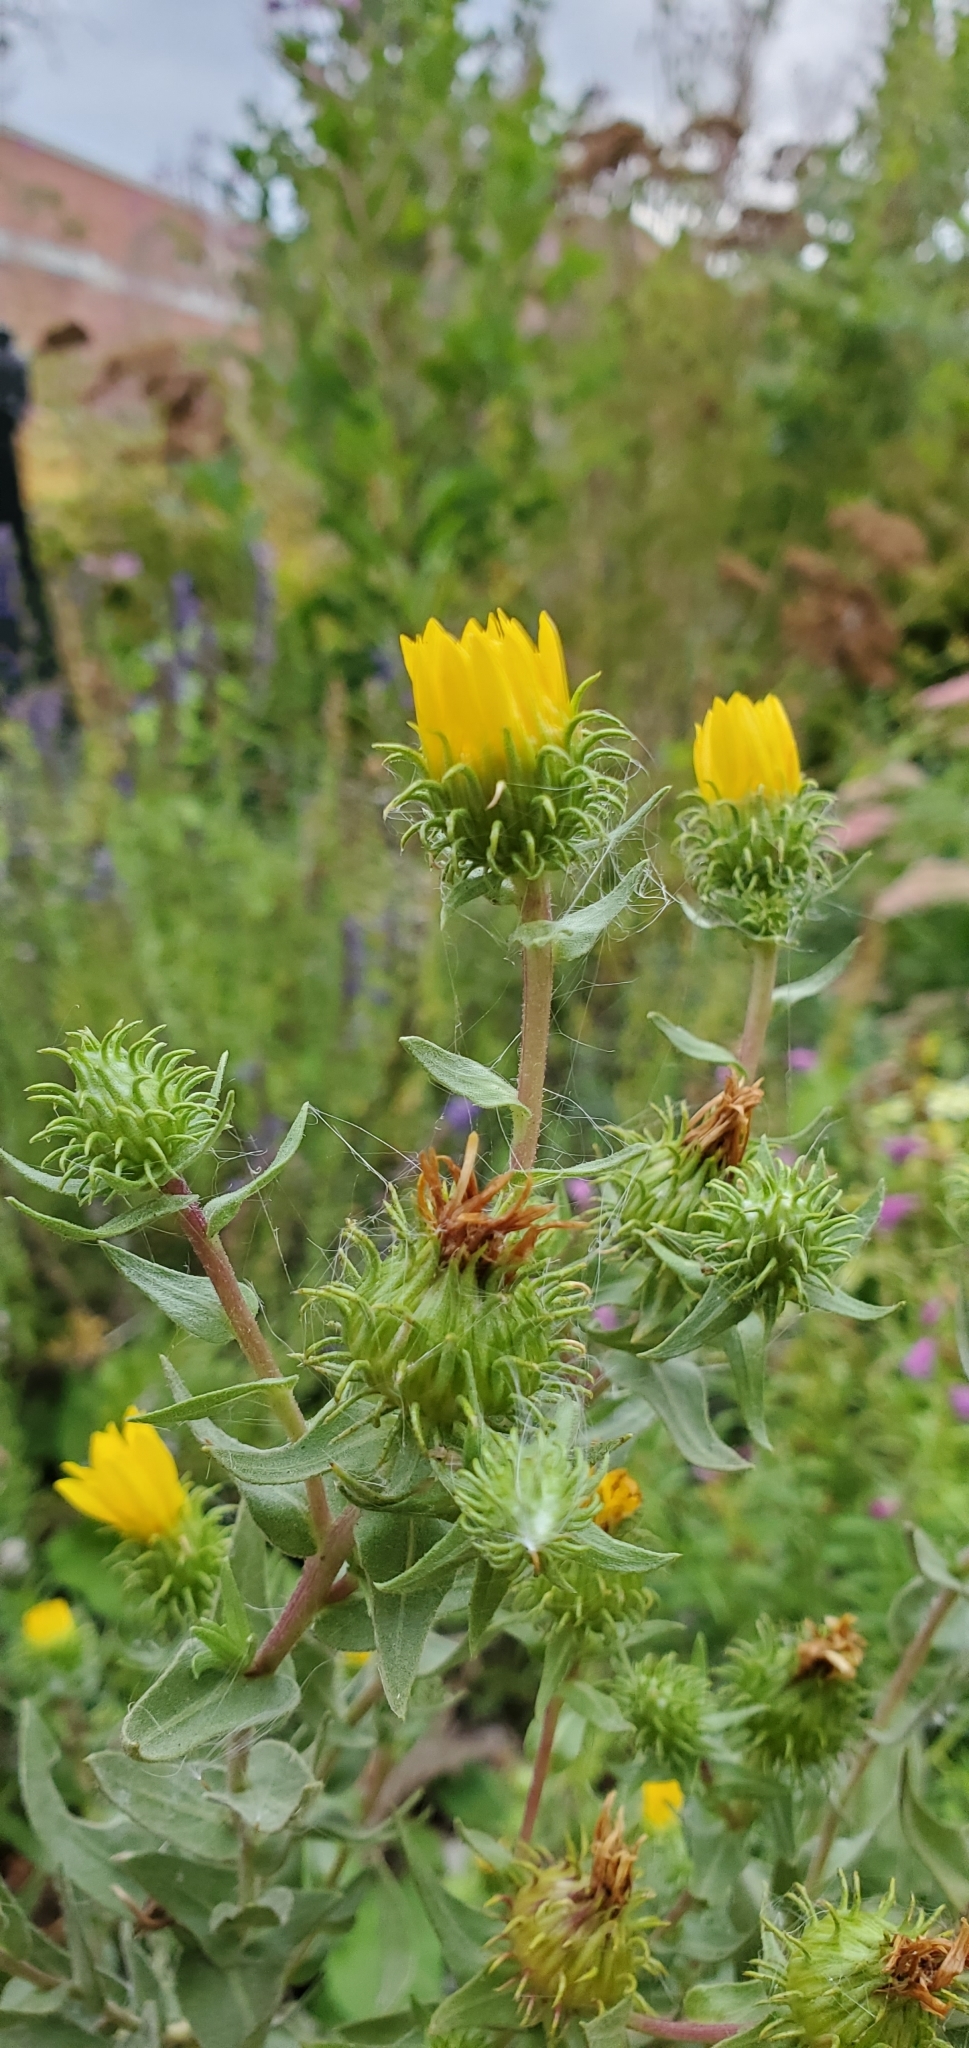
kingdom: Plantae
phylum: Tracheophyta
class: Magnoliopsida
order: Asterales
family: Asteraceae
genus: Grindelia
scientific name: Grindelia integrifolia
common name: Puget sound gumweed
